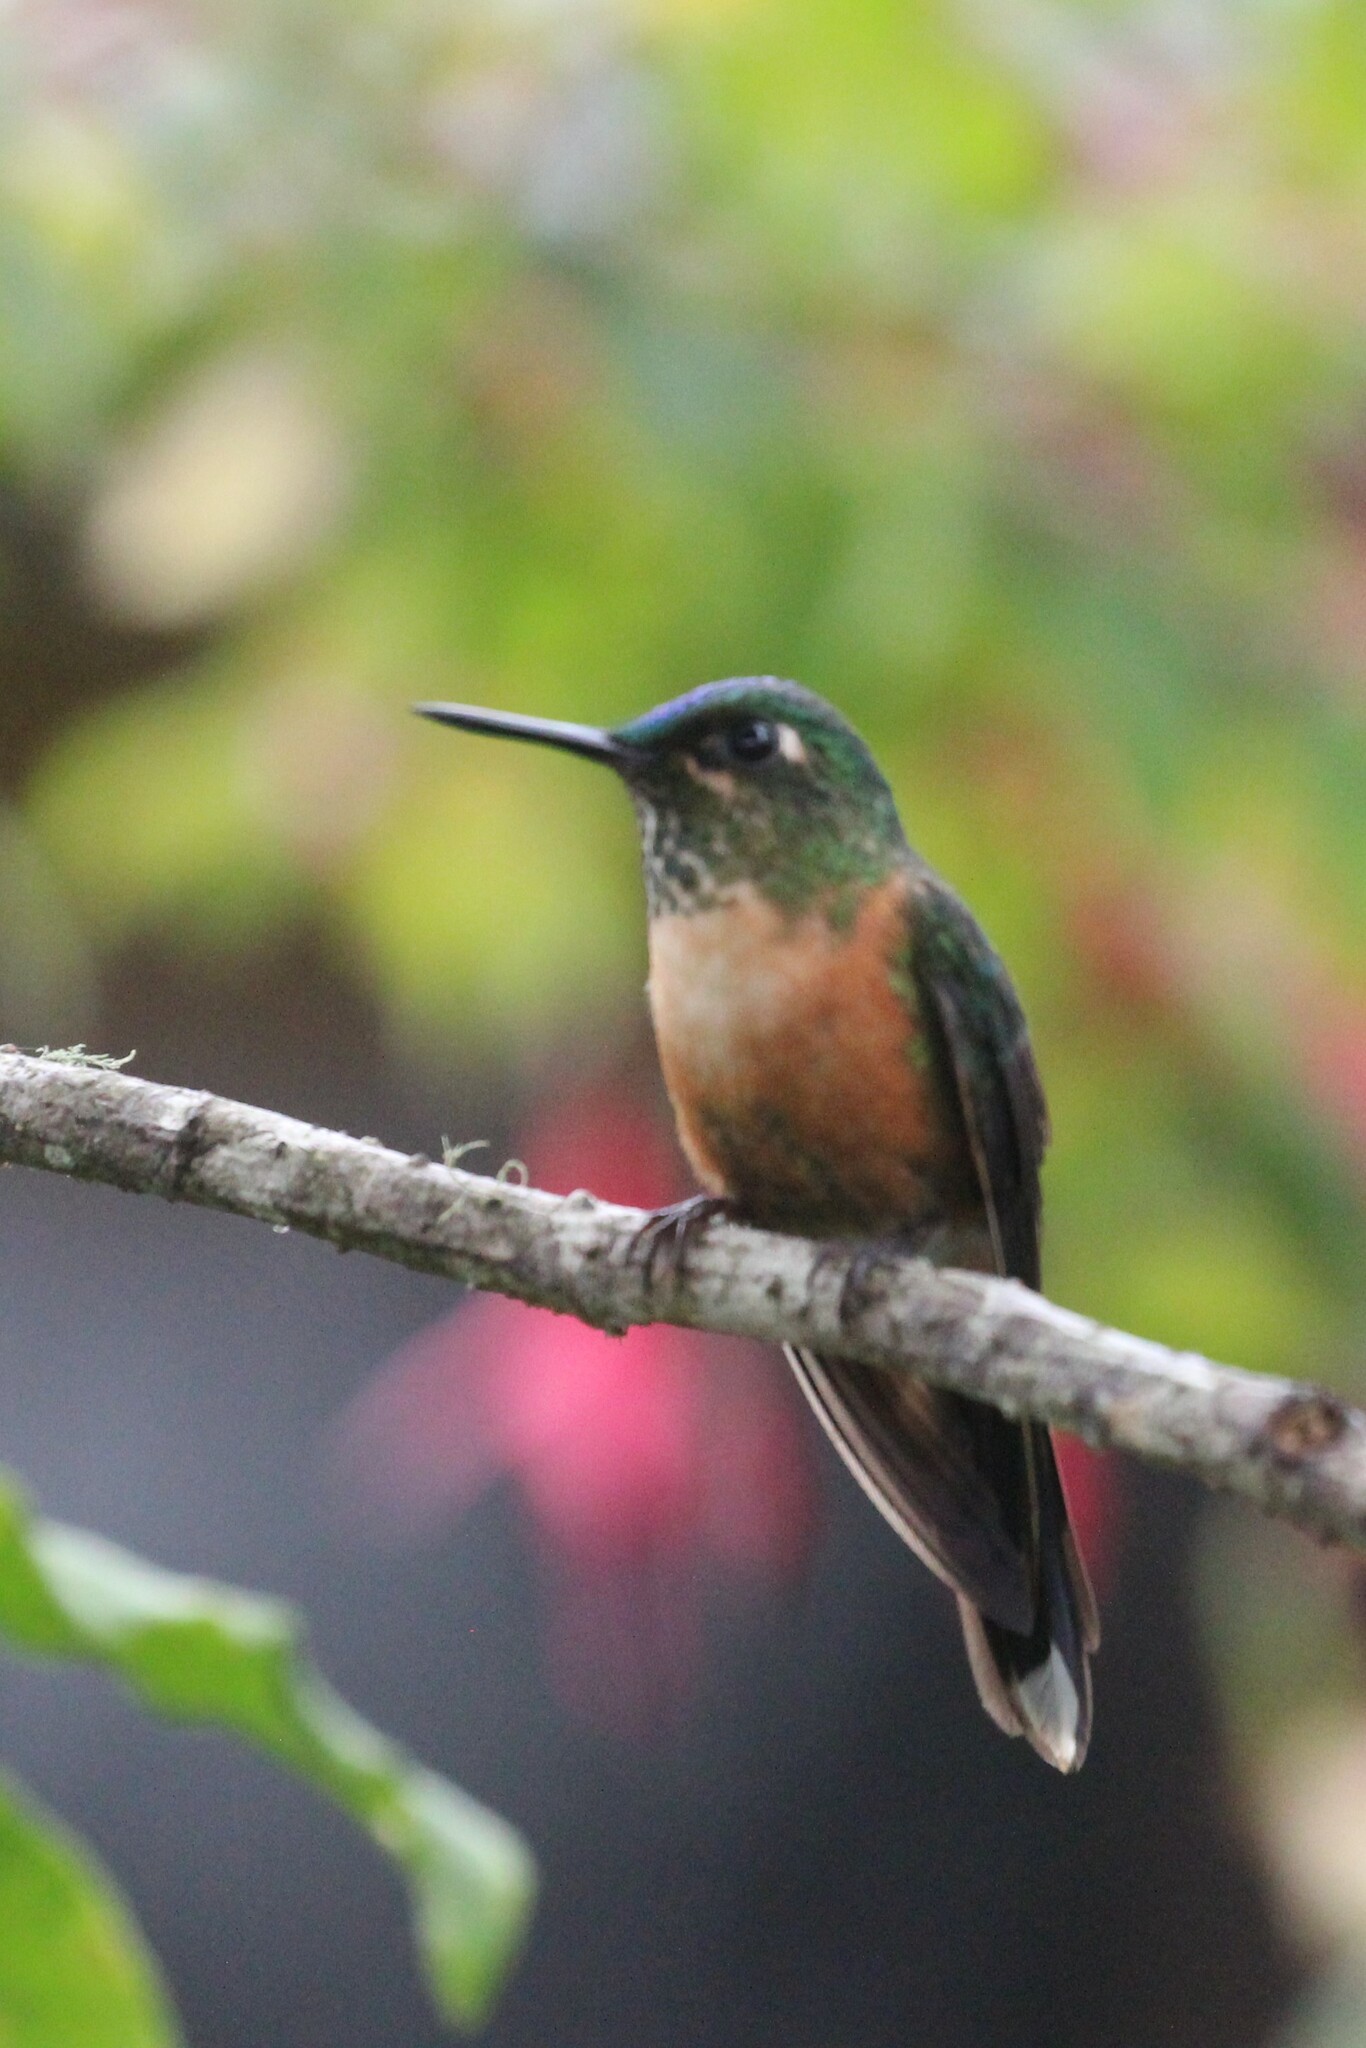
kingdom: Animalia
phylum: Chordata
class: Aves
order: Apodiformes
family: Trochilidae
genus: Aglaiocercus
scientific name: Aglaiocercus coelestis
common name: Violet-tailed sylph
